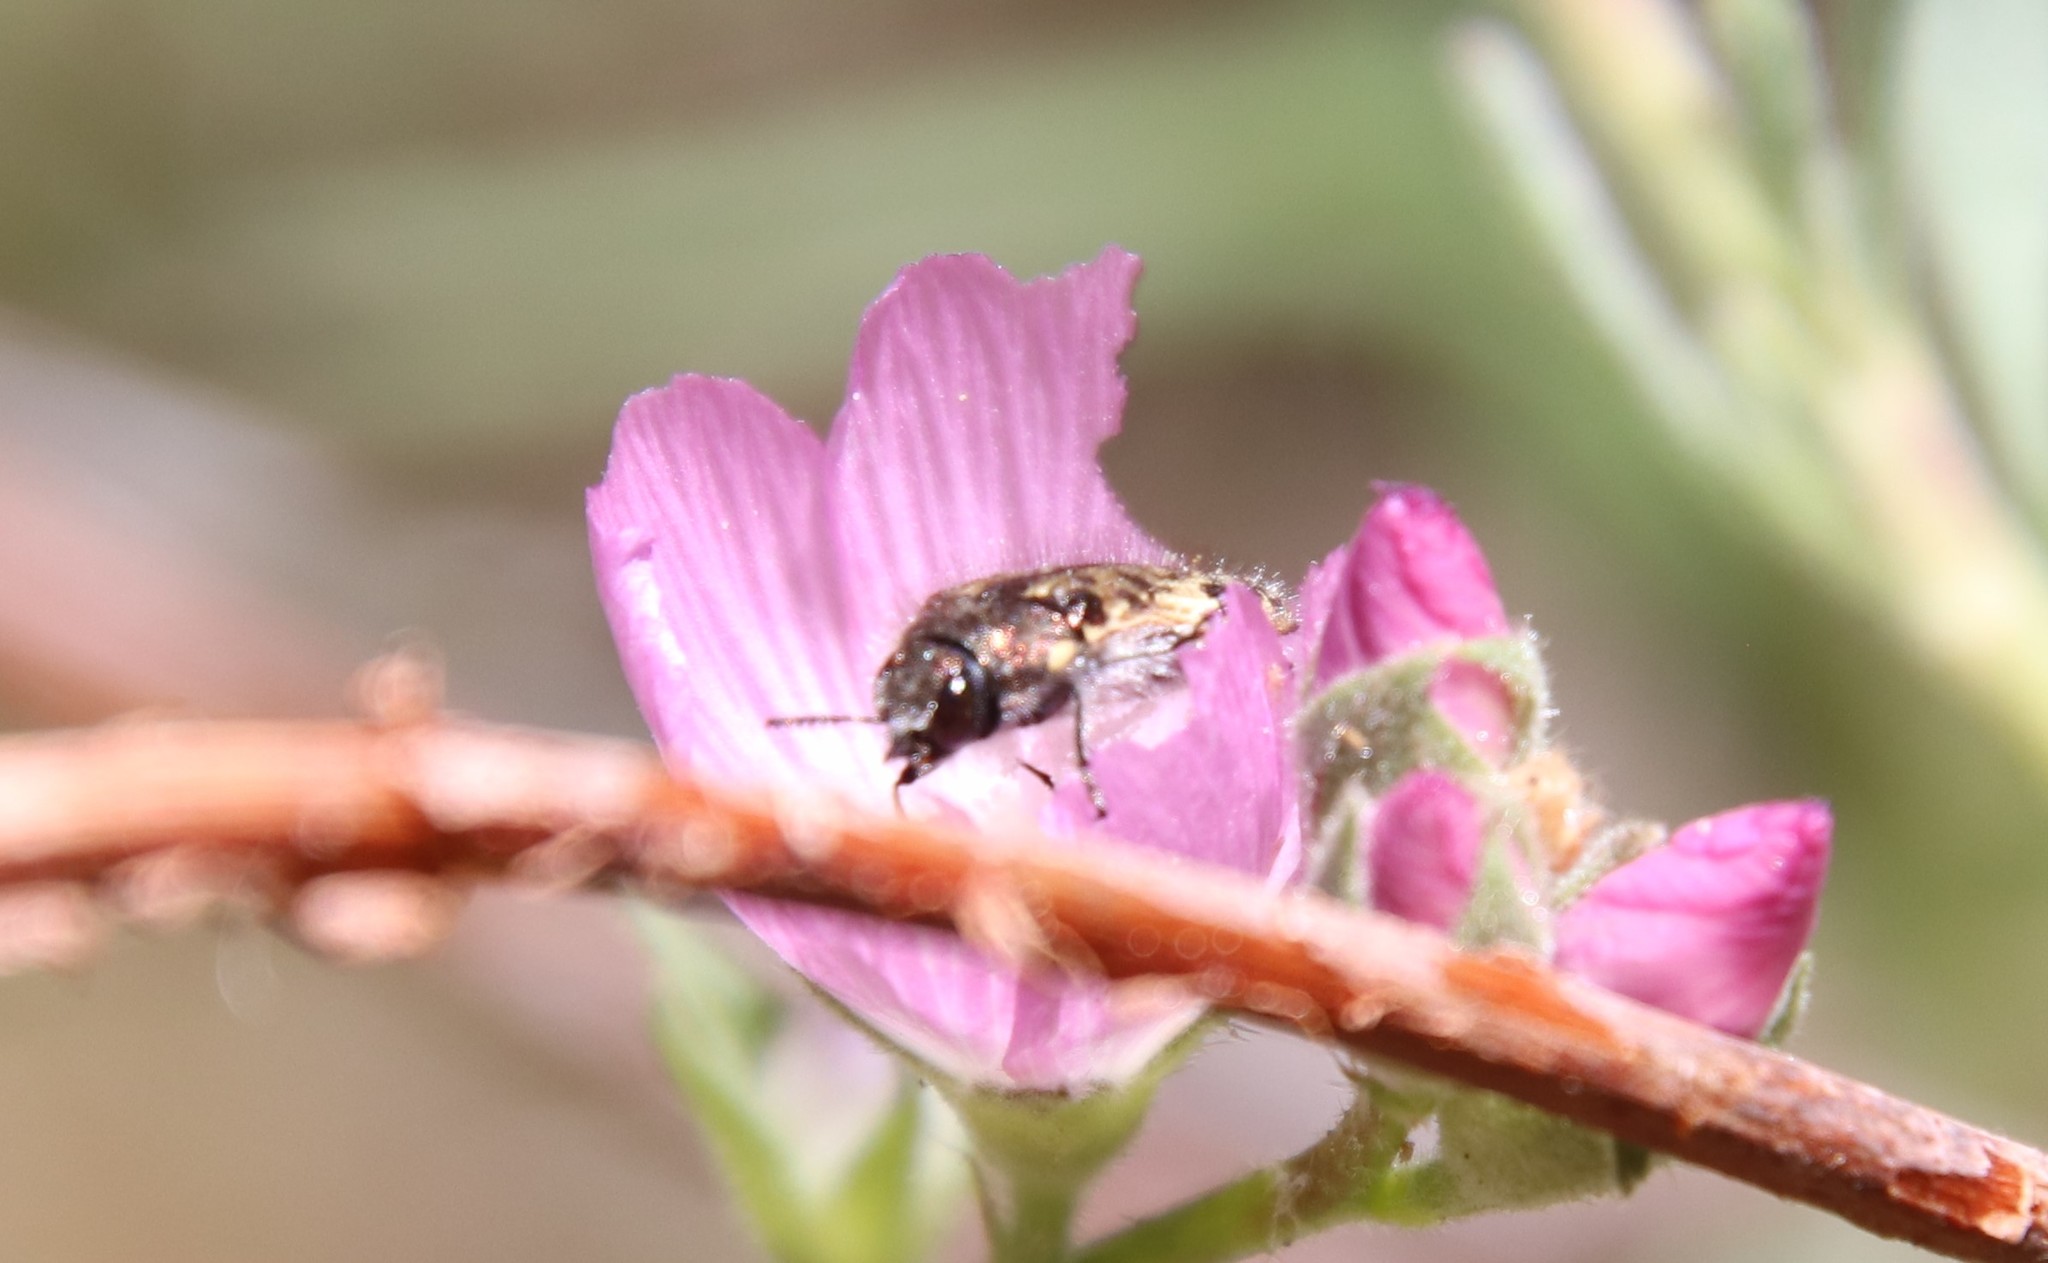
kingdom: Animalia
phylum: Arthropoda
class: Insecta
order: Coleoptera
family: Buprestidae
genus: Acmaeodera
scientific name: Acmaeodera hepburnii
